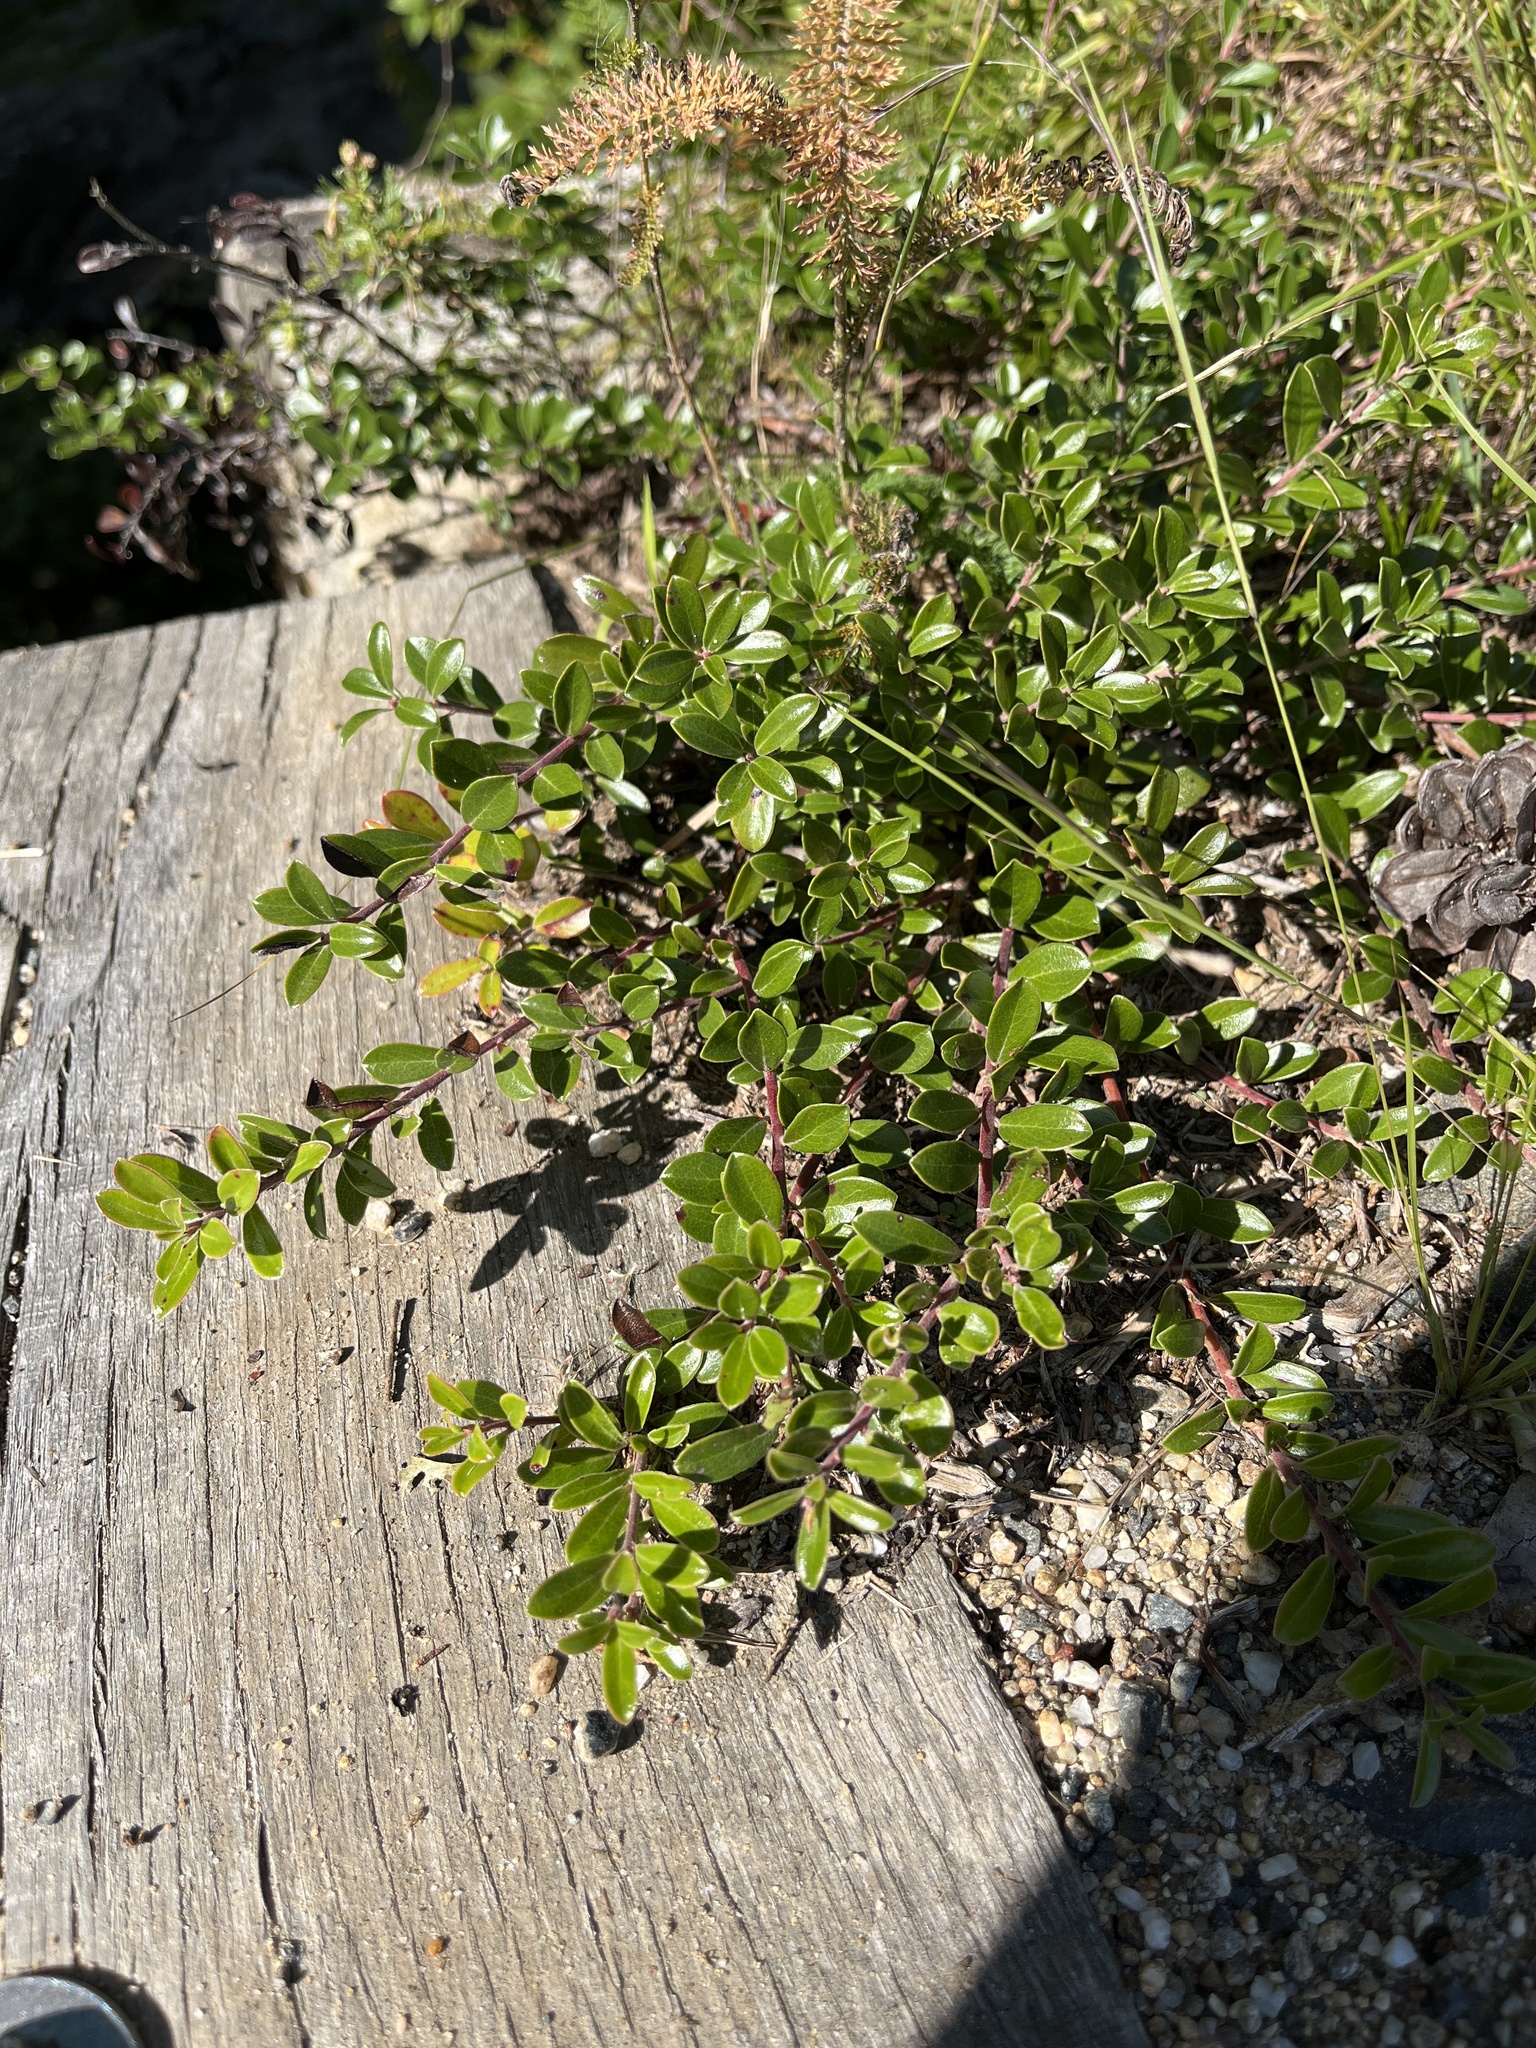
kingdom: Plantae
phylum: Tracheophyta
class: Magnoliopsida
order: Ericales
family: Ericaceae
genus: Arctostaphylos
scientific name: Arctostaphylos uva-ursi
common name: Bearberry
